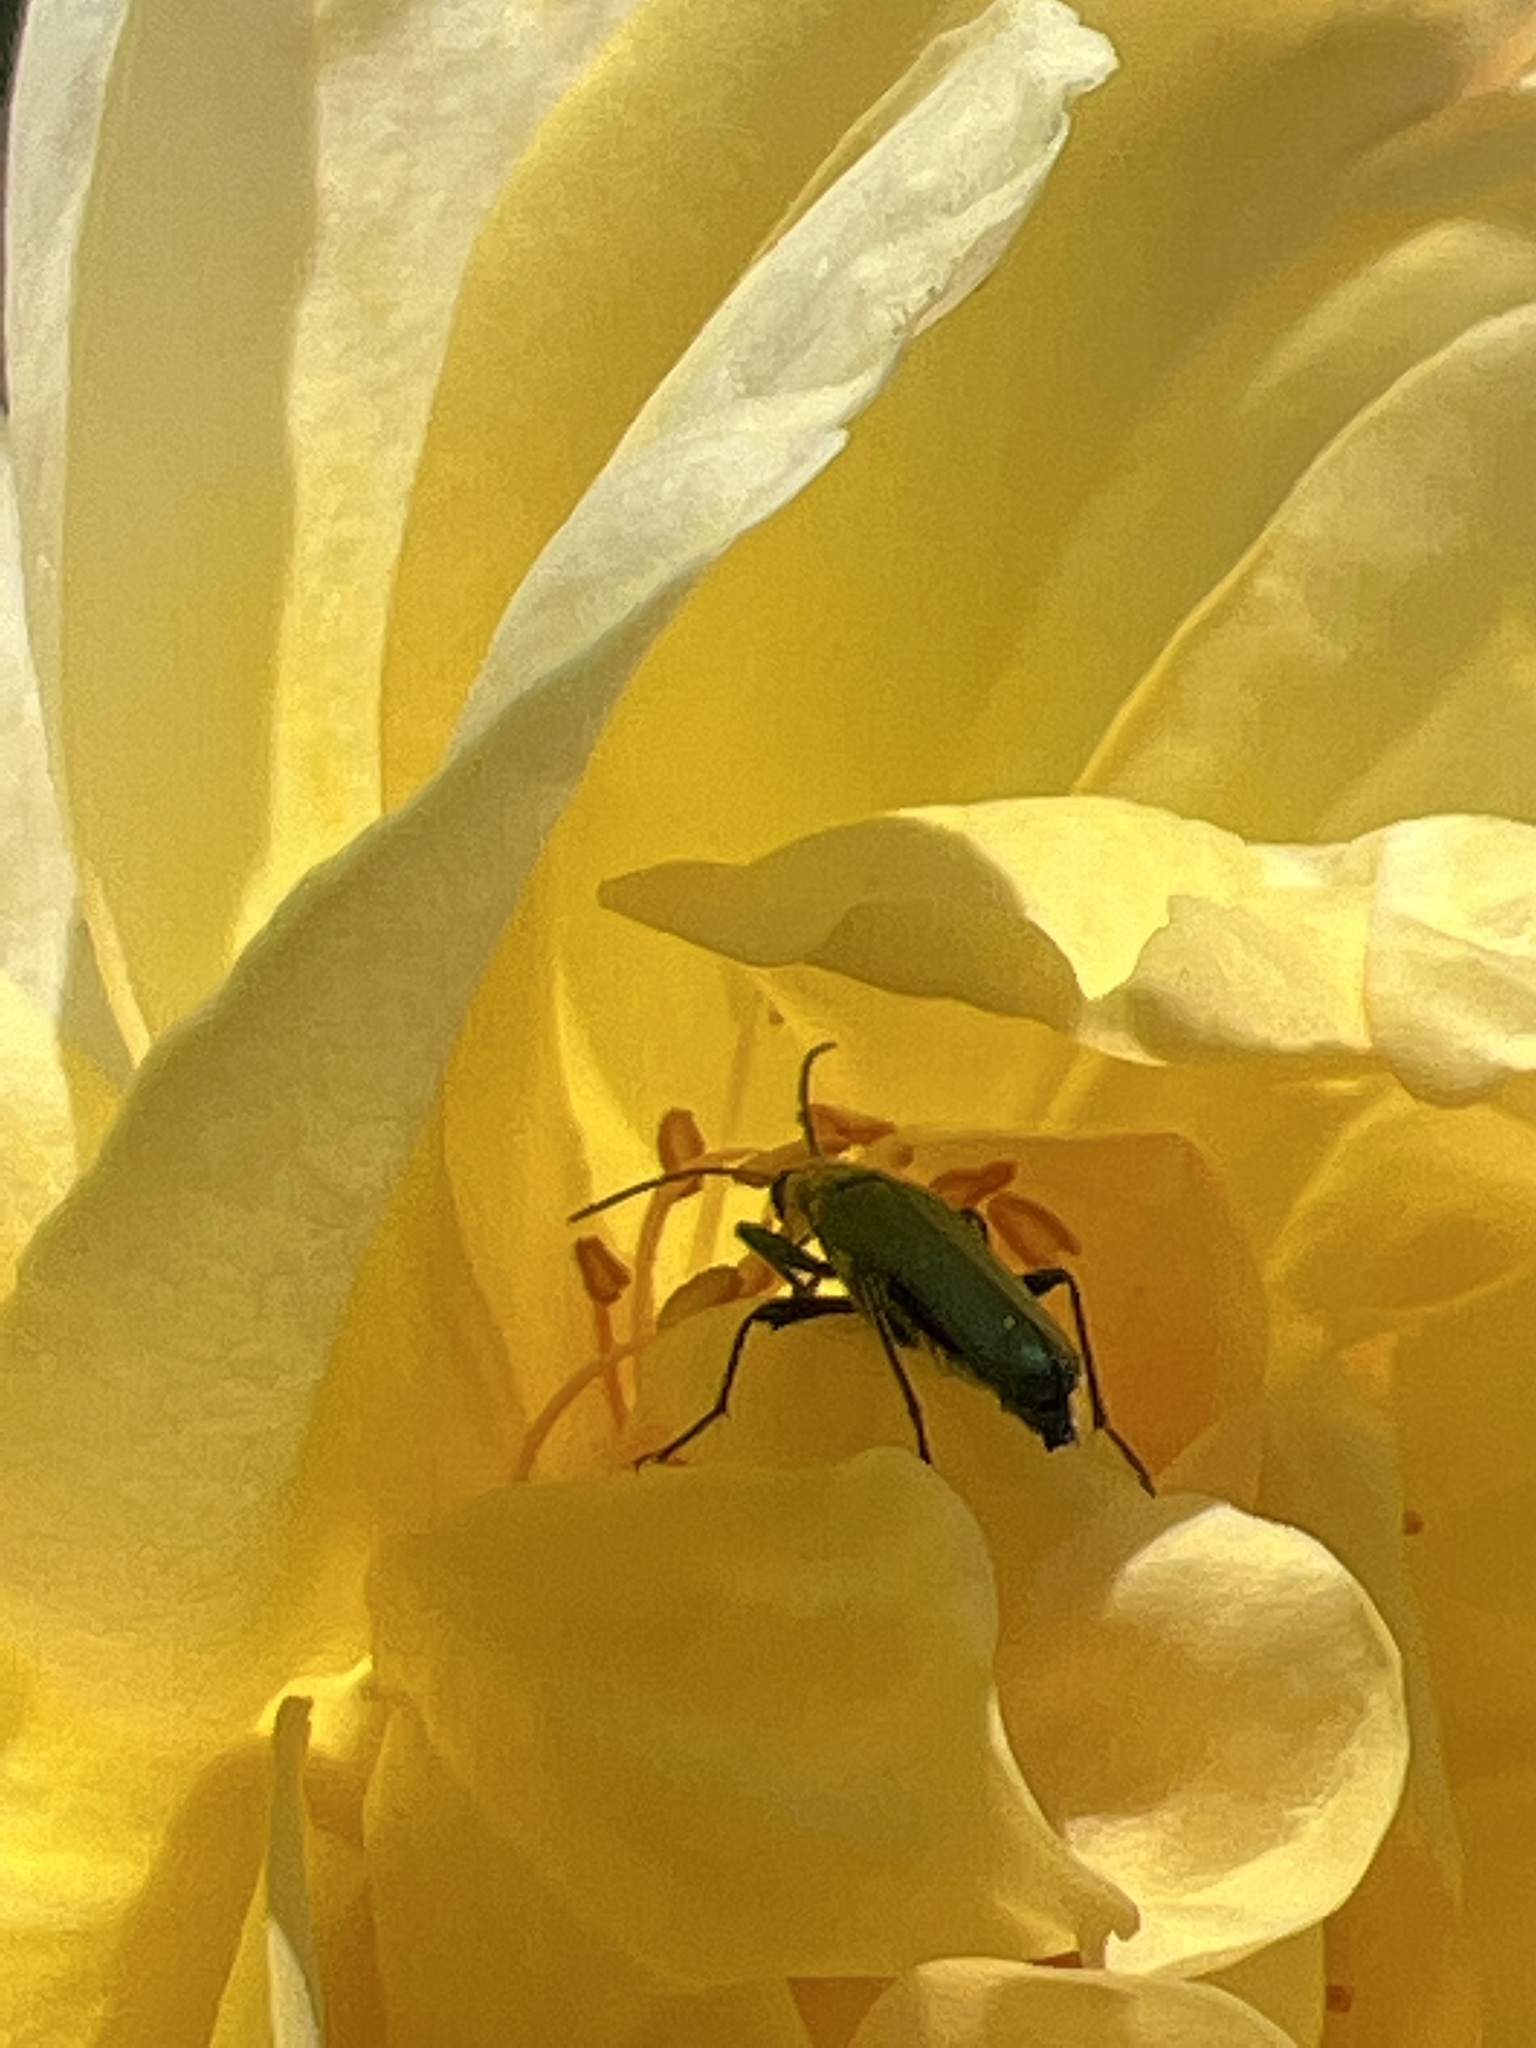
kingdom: Animalia
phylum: Arthropoda
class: Insecta
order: Coleoptera
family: Oedemeridae
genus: Oedemera
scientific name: Oedemera nobilis
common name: Swollen-thighed beetle
